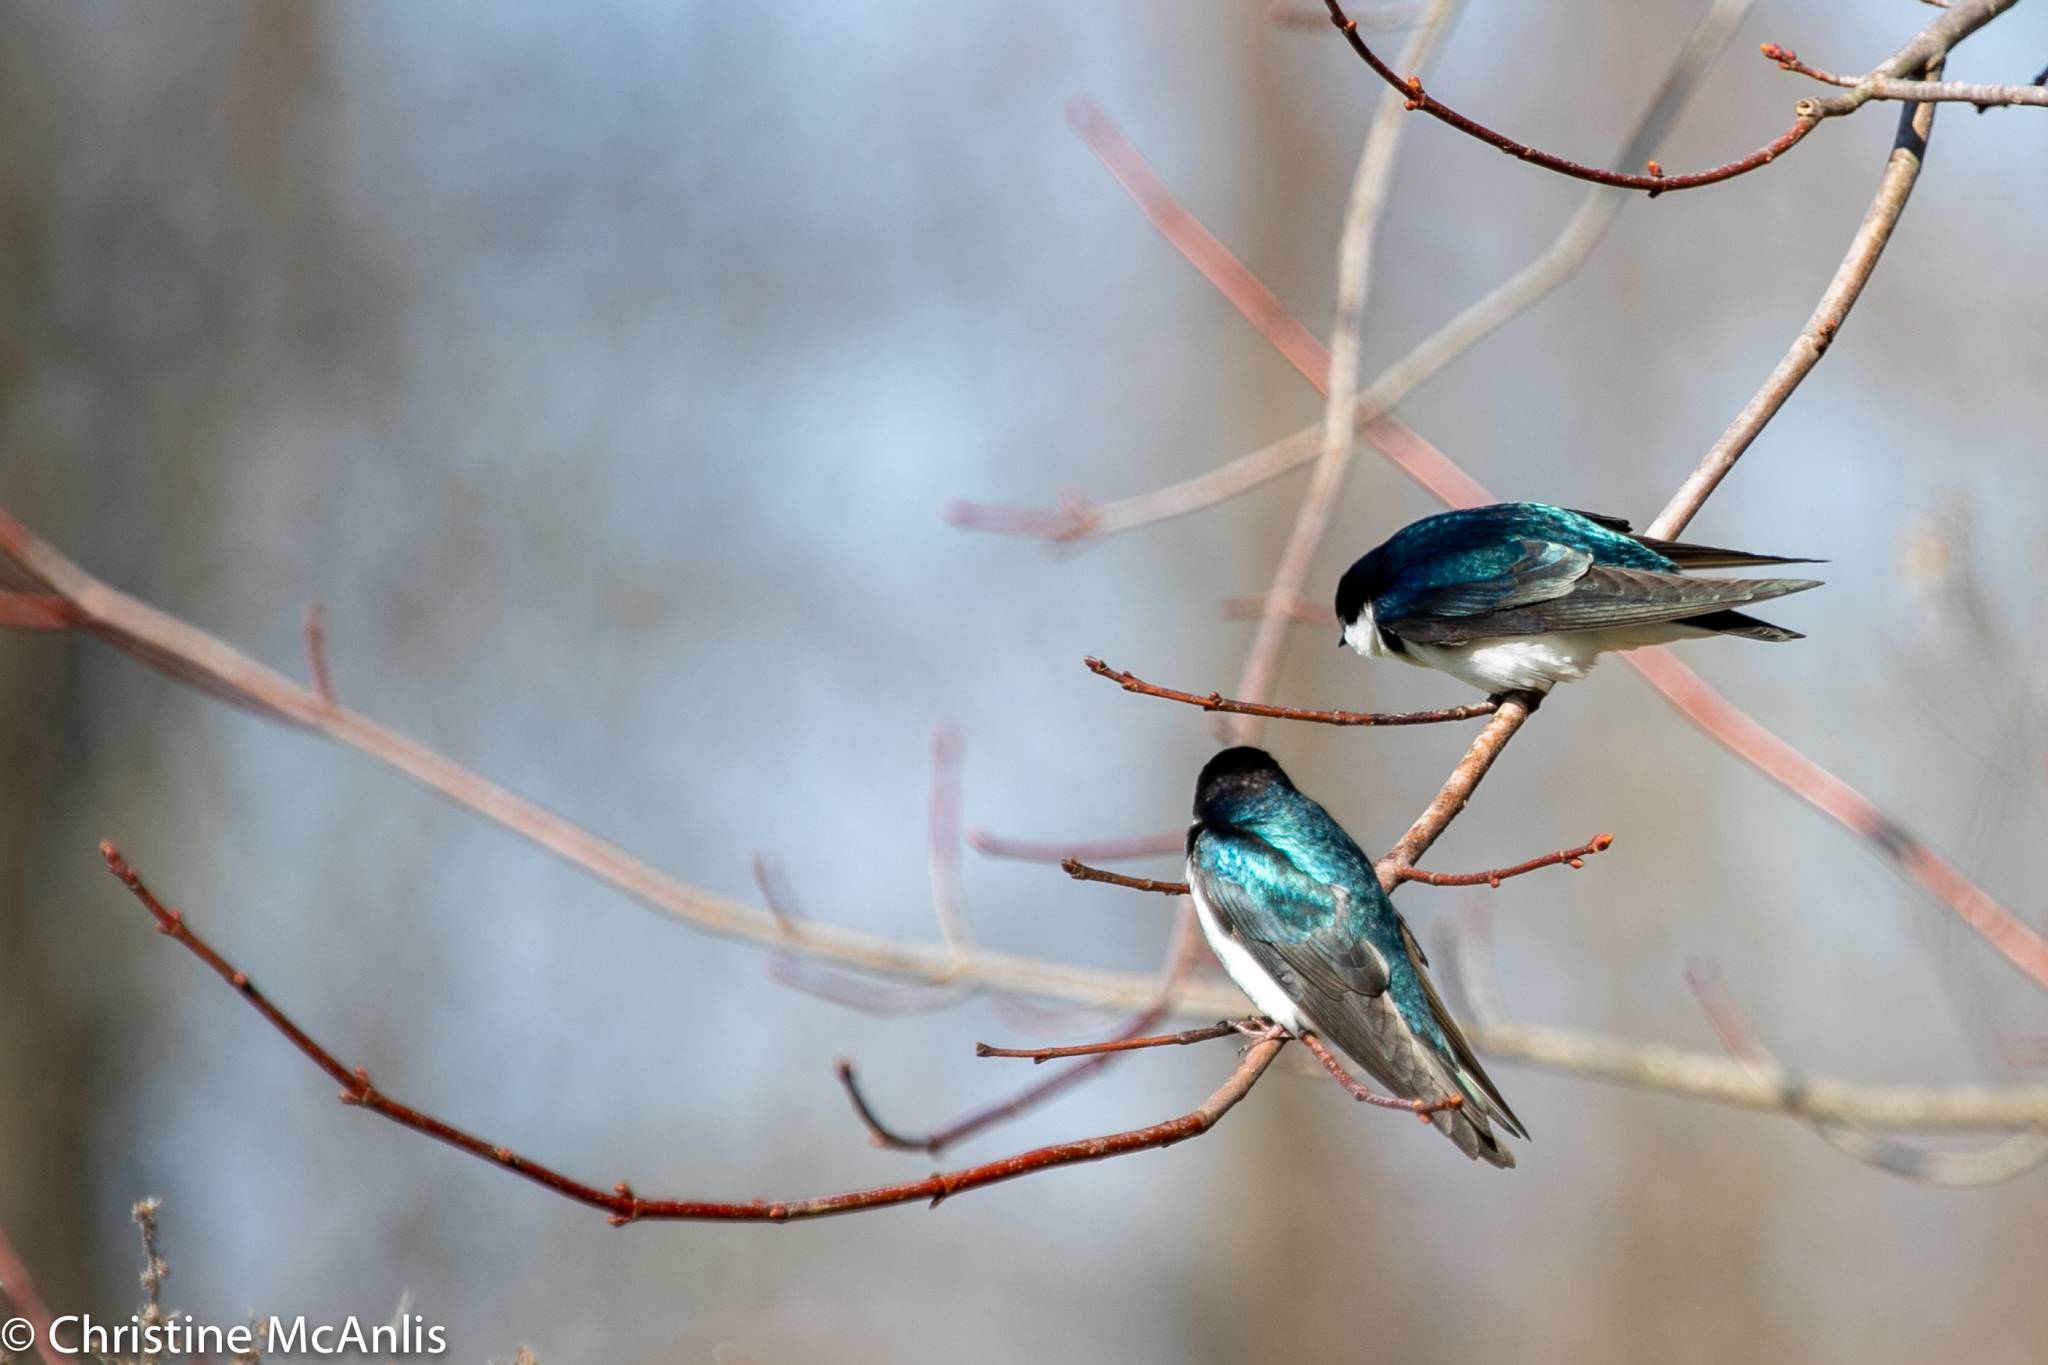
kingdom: Animalia
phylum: Chordata
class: Aves
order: Passeriformes
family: Hirundinidae
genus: Tachycineta
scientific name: Tachycineta bicolor
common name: Tree swallow
